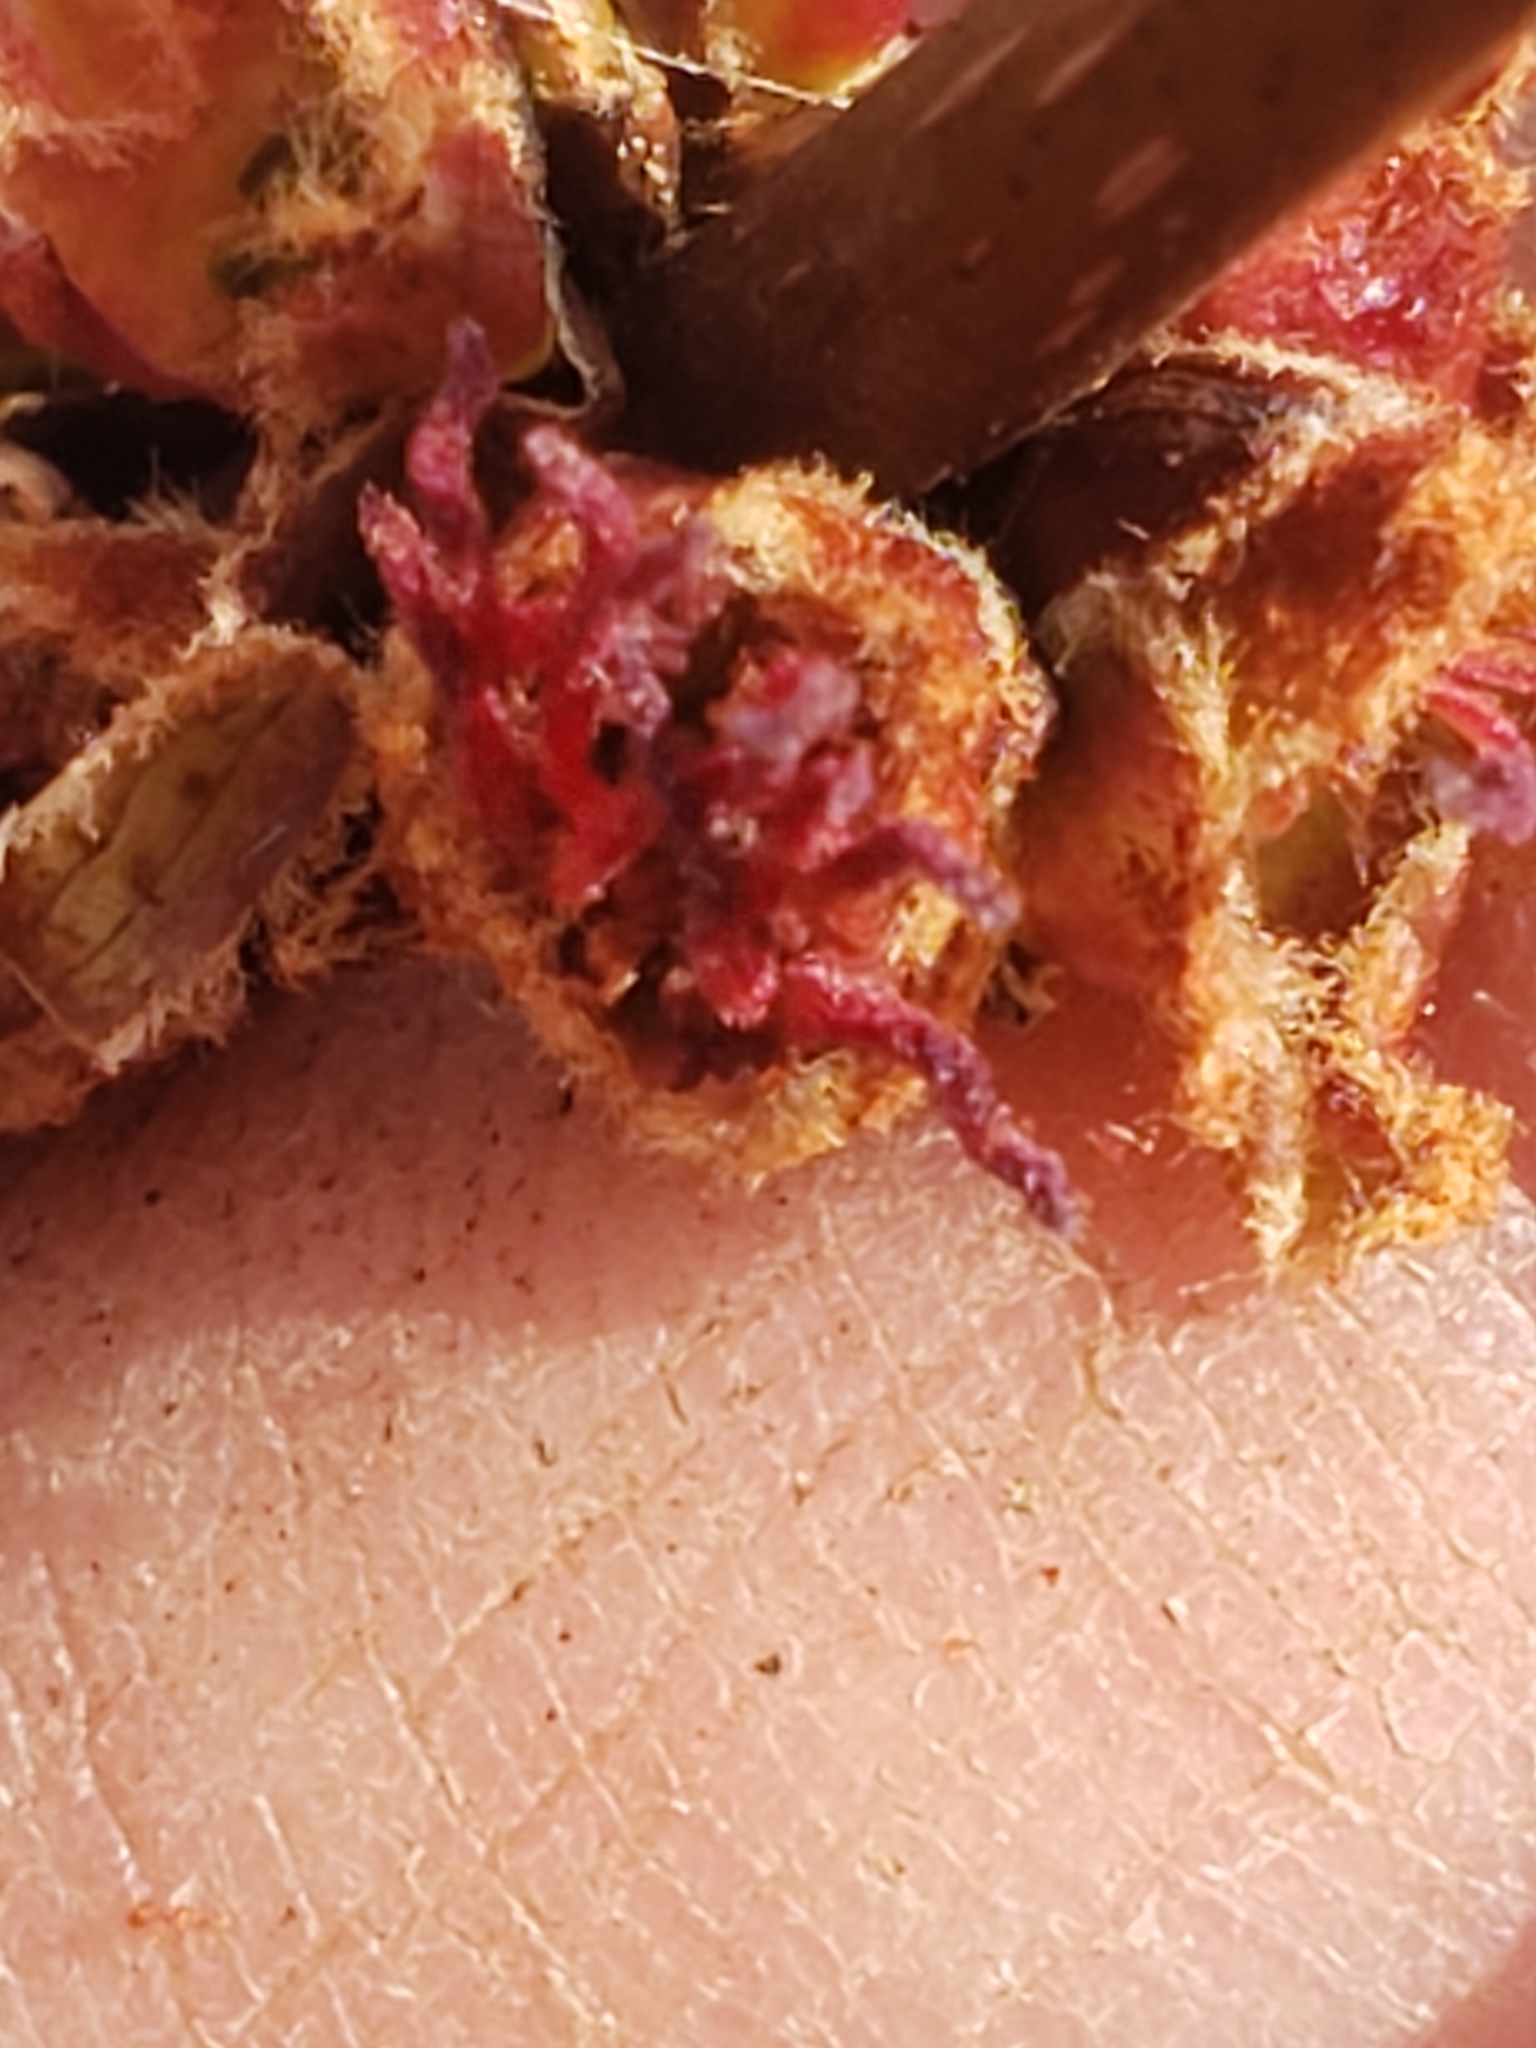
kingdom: Plantae
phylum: Tracheophyta
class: Magnoliopsida
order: Sapindales
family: Sapindaceae
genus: Acer
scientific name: Acer rubrum
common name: Red maple
